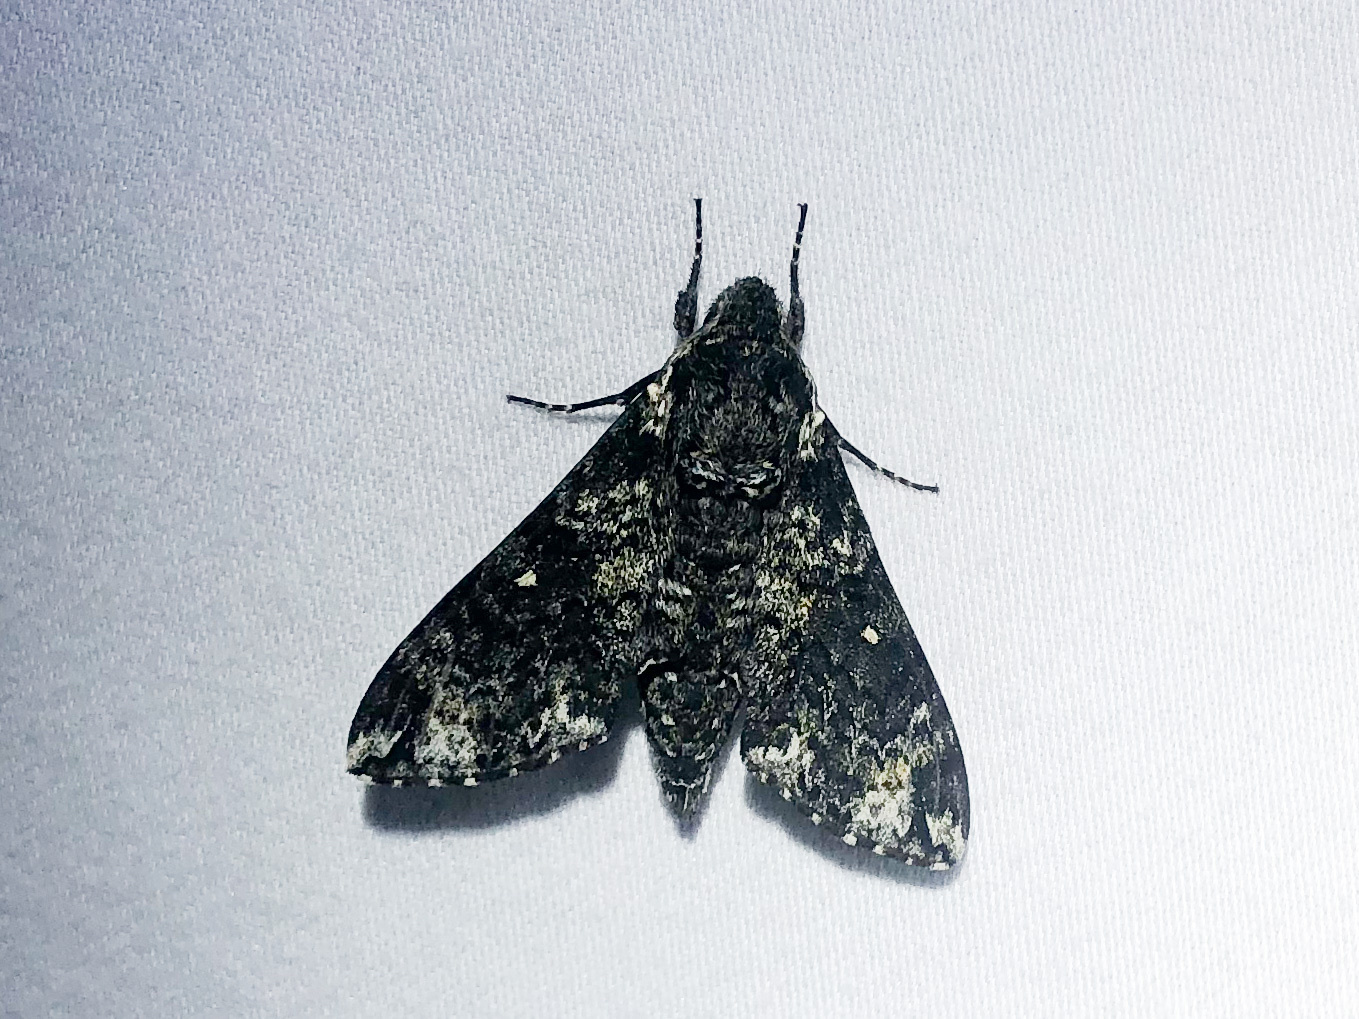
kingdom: Animalia
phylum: Arthropoda
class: Insecta
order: Lepidoptera
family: Sphingidae
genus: Dolba
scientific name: Dolba hyloeus
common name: Pawpaw sphinx
